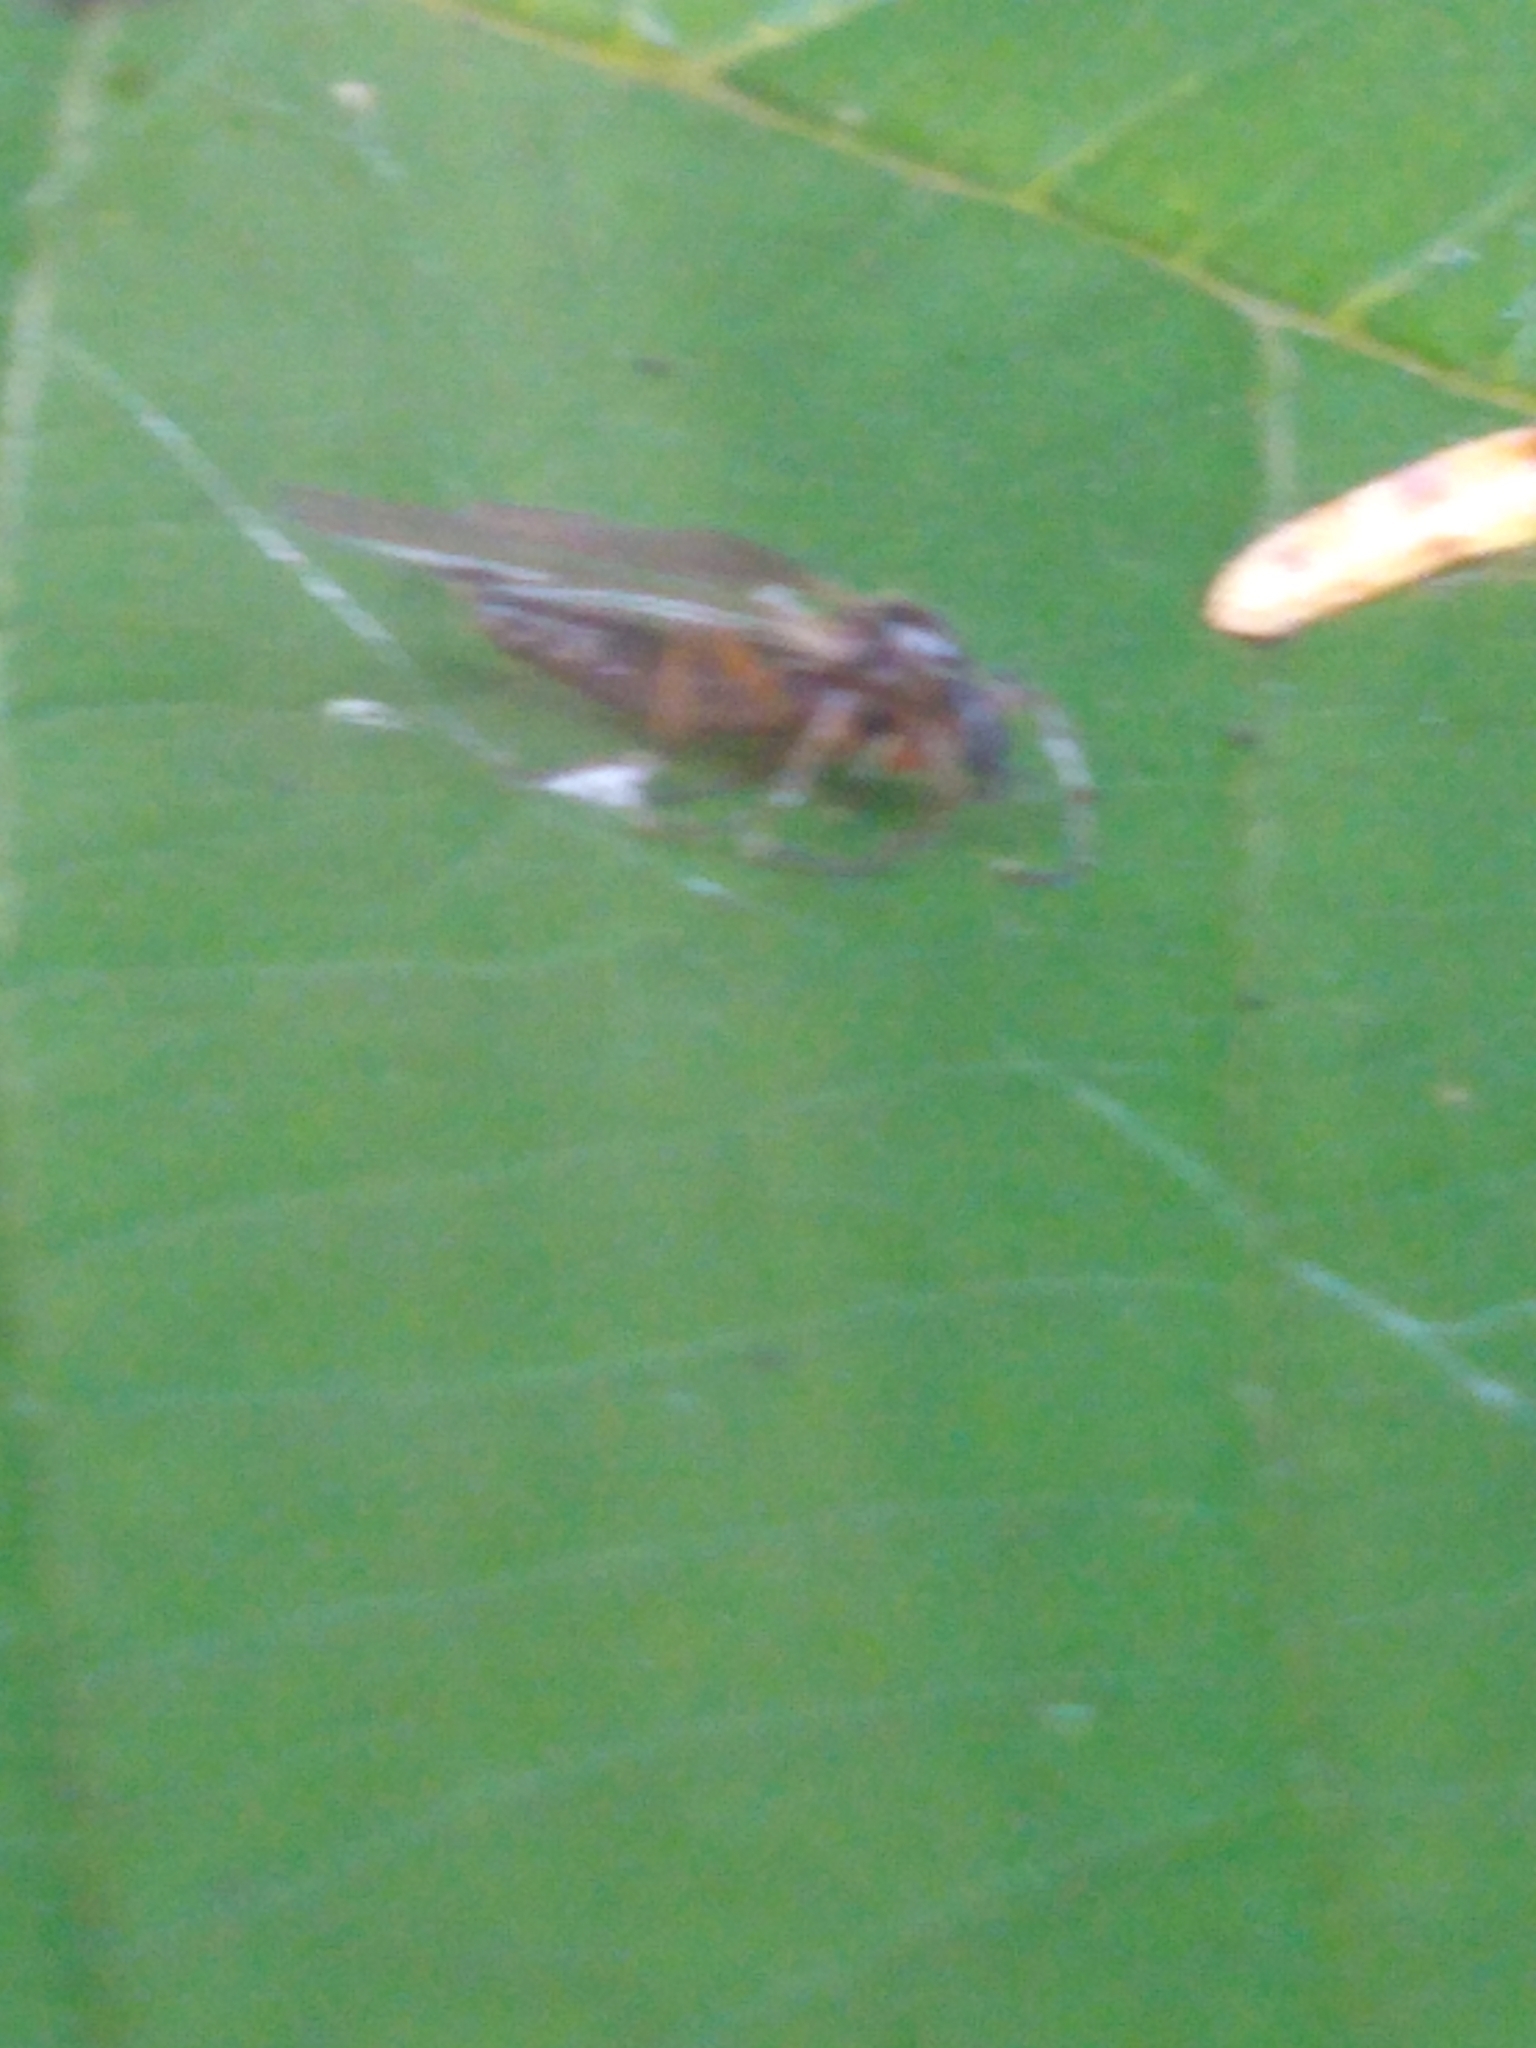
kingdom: Animalia
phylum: Arthropoda
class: Insecta
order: Diptera
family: Bibionidae
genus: Bibio
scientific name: Bibio slossonae
